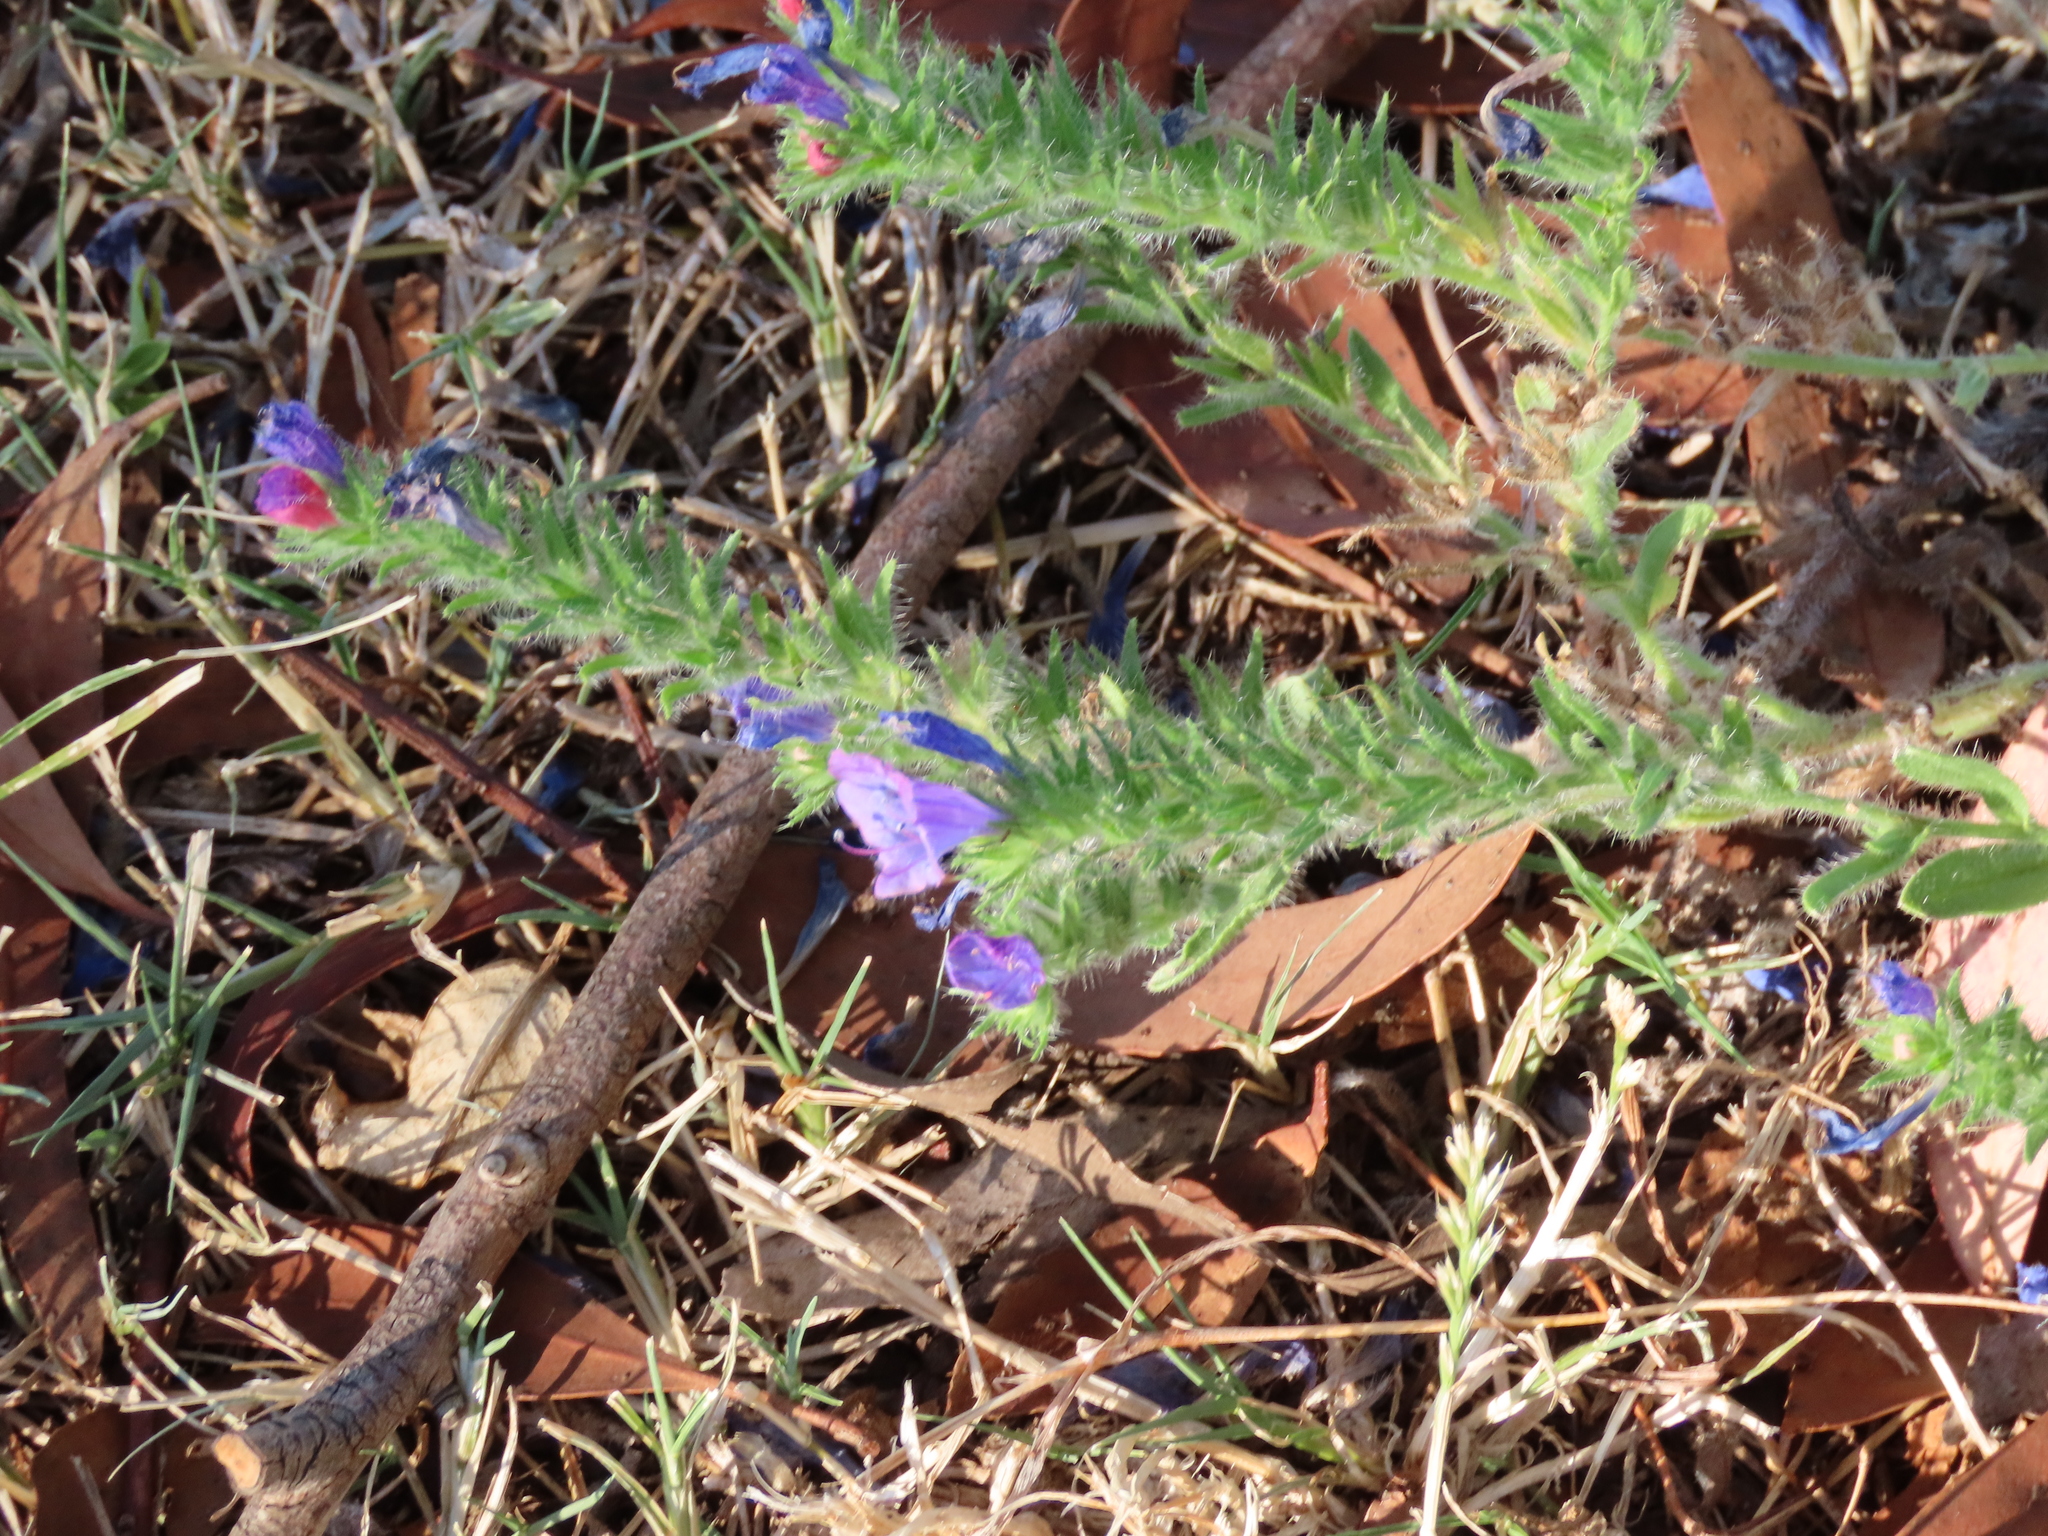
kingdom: Plantae
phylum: Tracheophyta
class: Magnoliopsida
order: Boraginales
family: Boraginaceae
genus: Echium
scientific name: Echium plantagineum
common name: Purple viper's-bugloss
